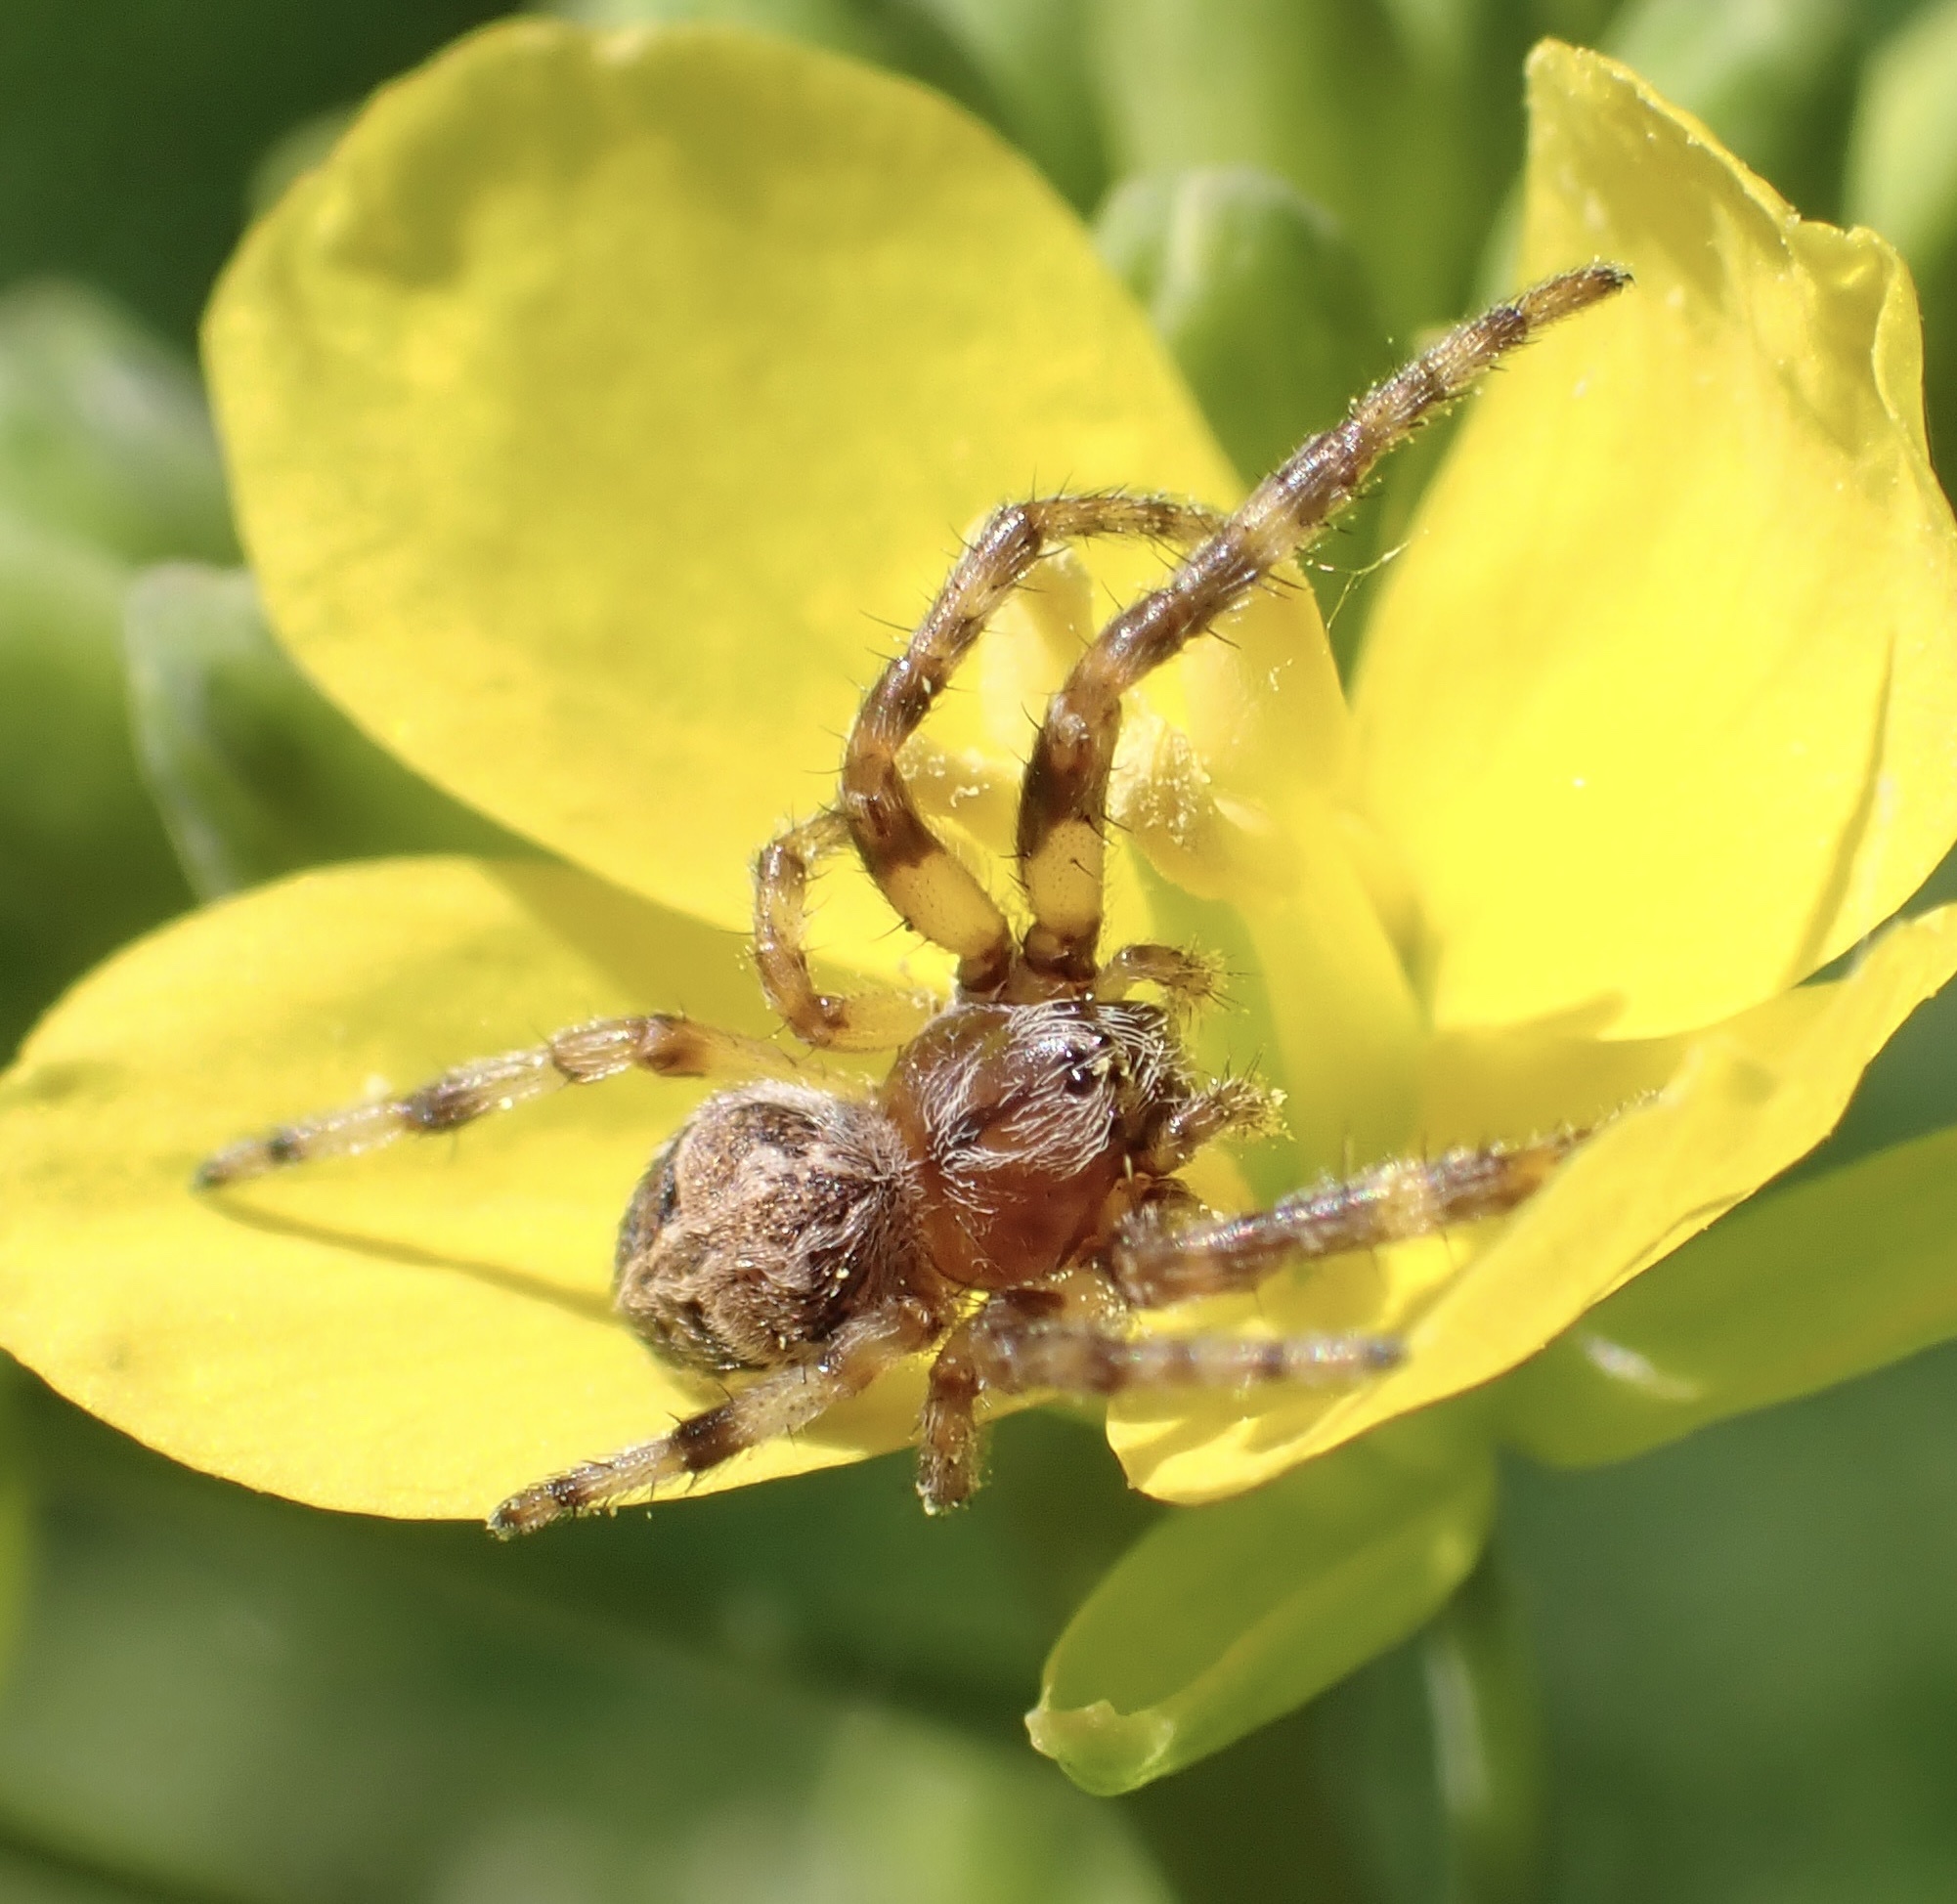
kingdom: Animalia
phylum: Arthropoda
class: Arachnida
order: Araneae
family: Araneidae
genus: Larinioides
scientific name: Larinioides cornutus
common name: Furrow orbweaver
